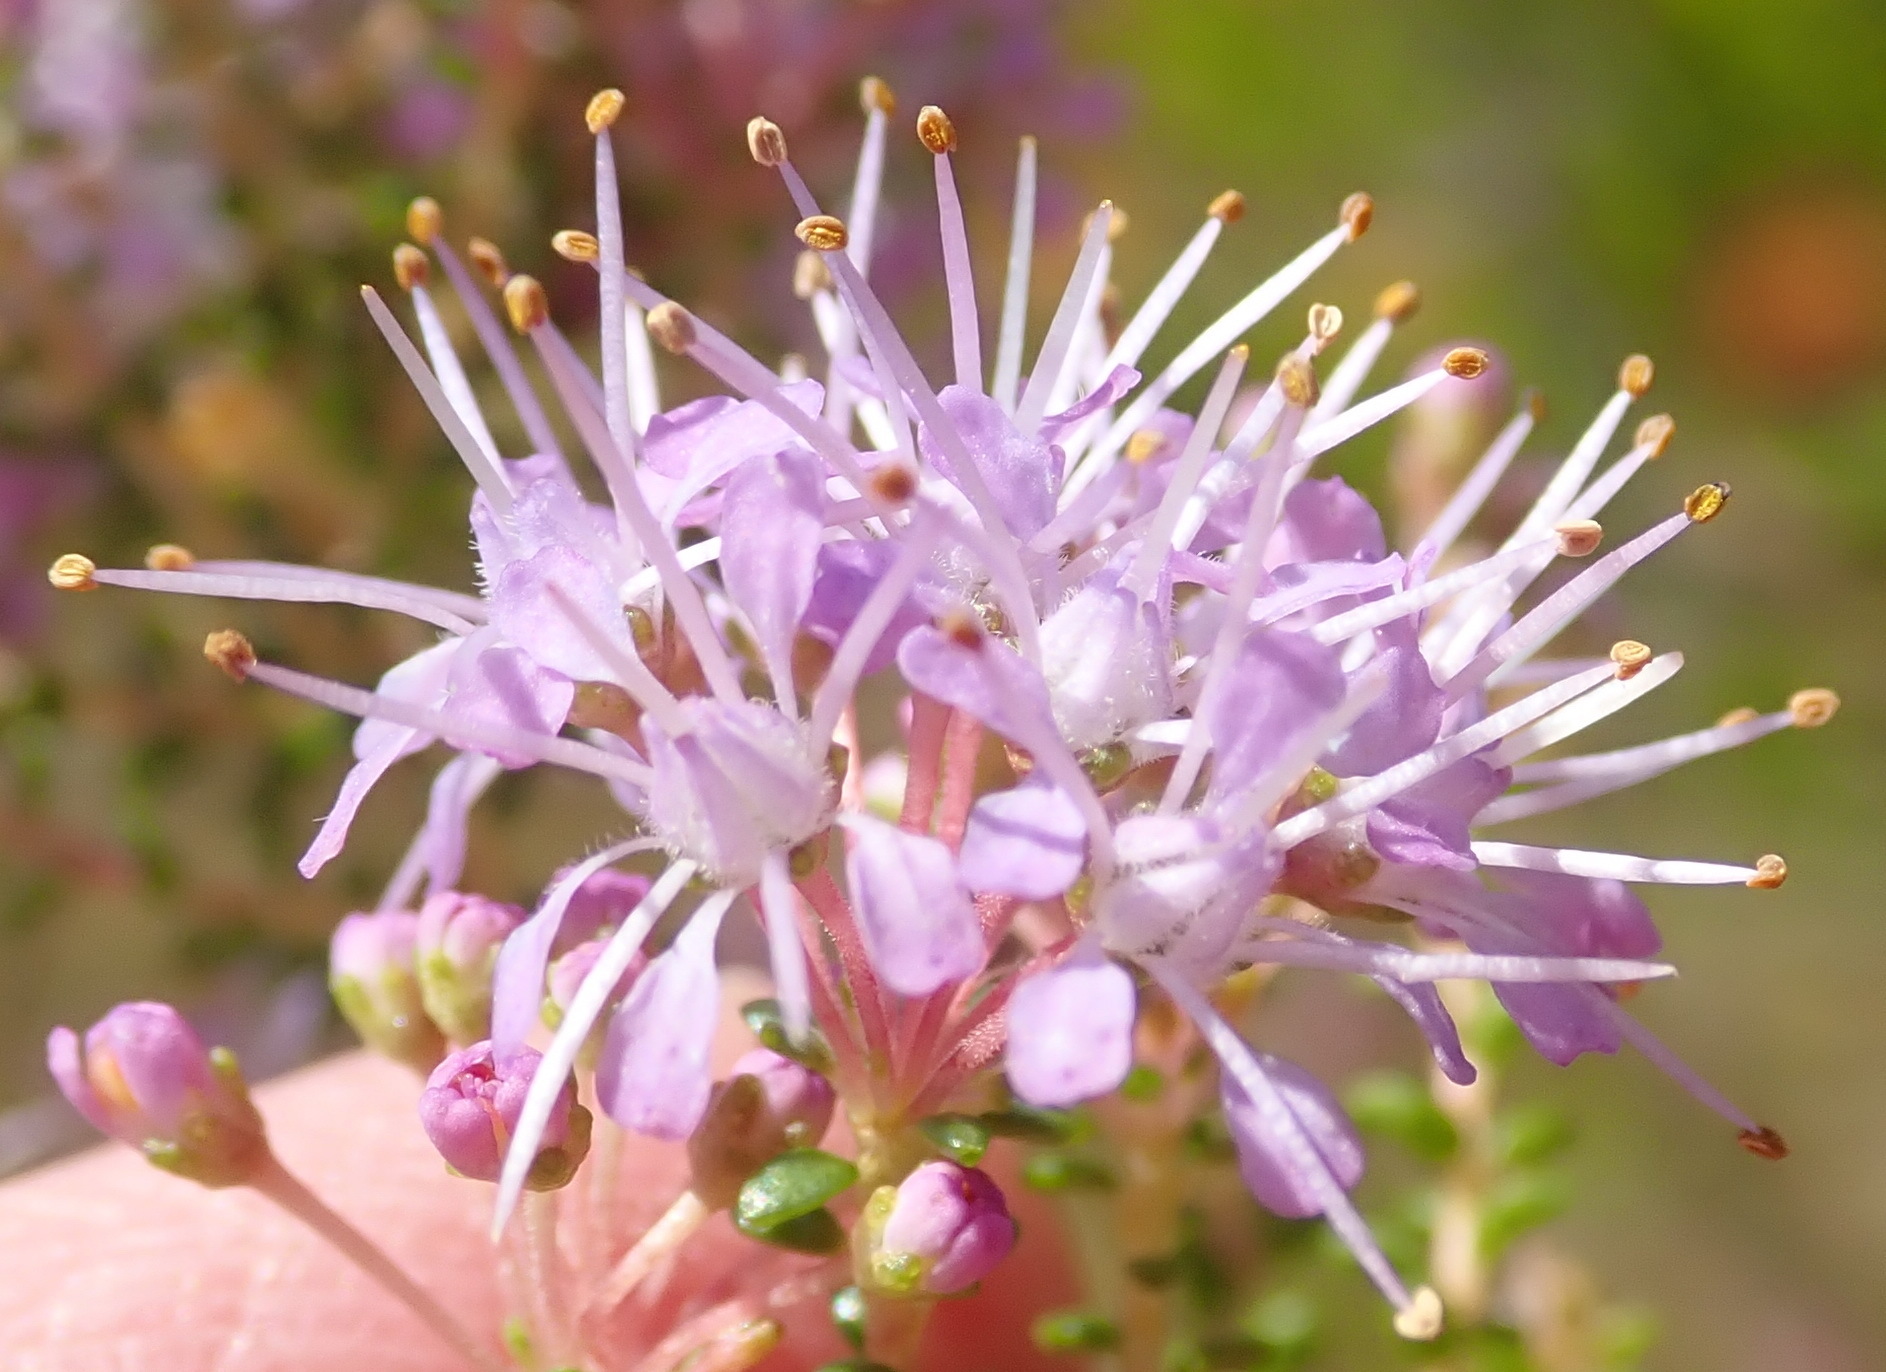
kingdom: Plantae
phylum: Tracheophyta
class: Magnoliopsida
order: Sapindales
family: Rutaceae
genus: Agathosma
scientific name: Agathosma capensis
